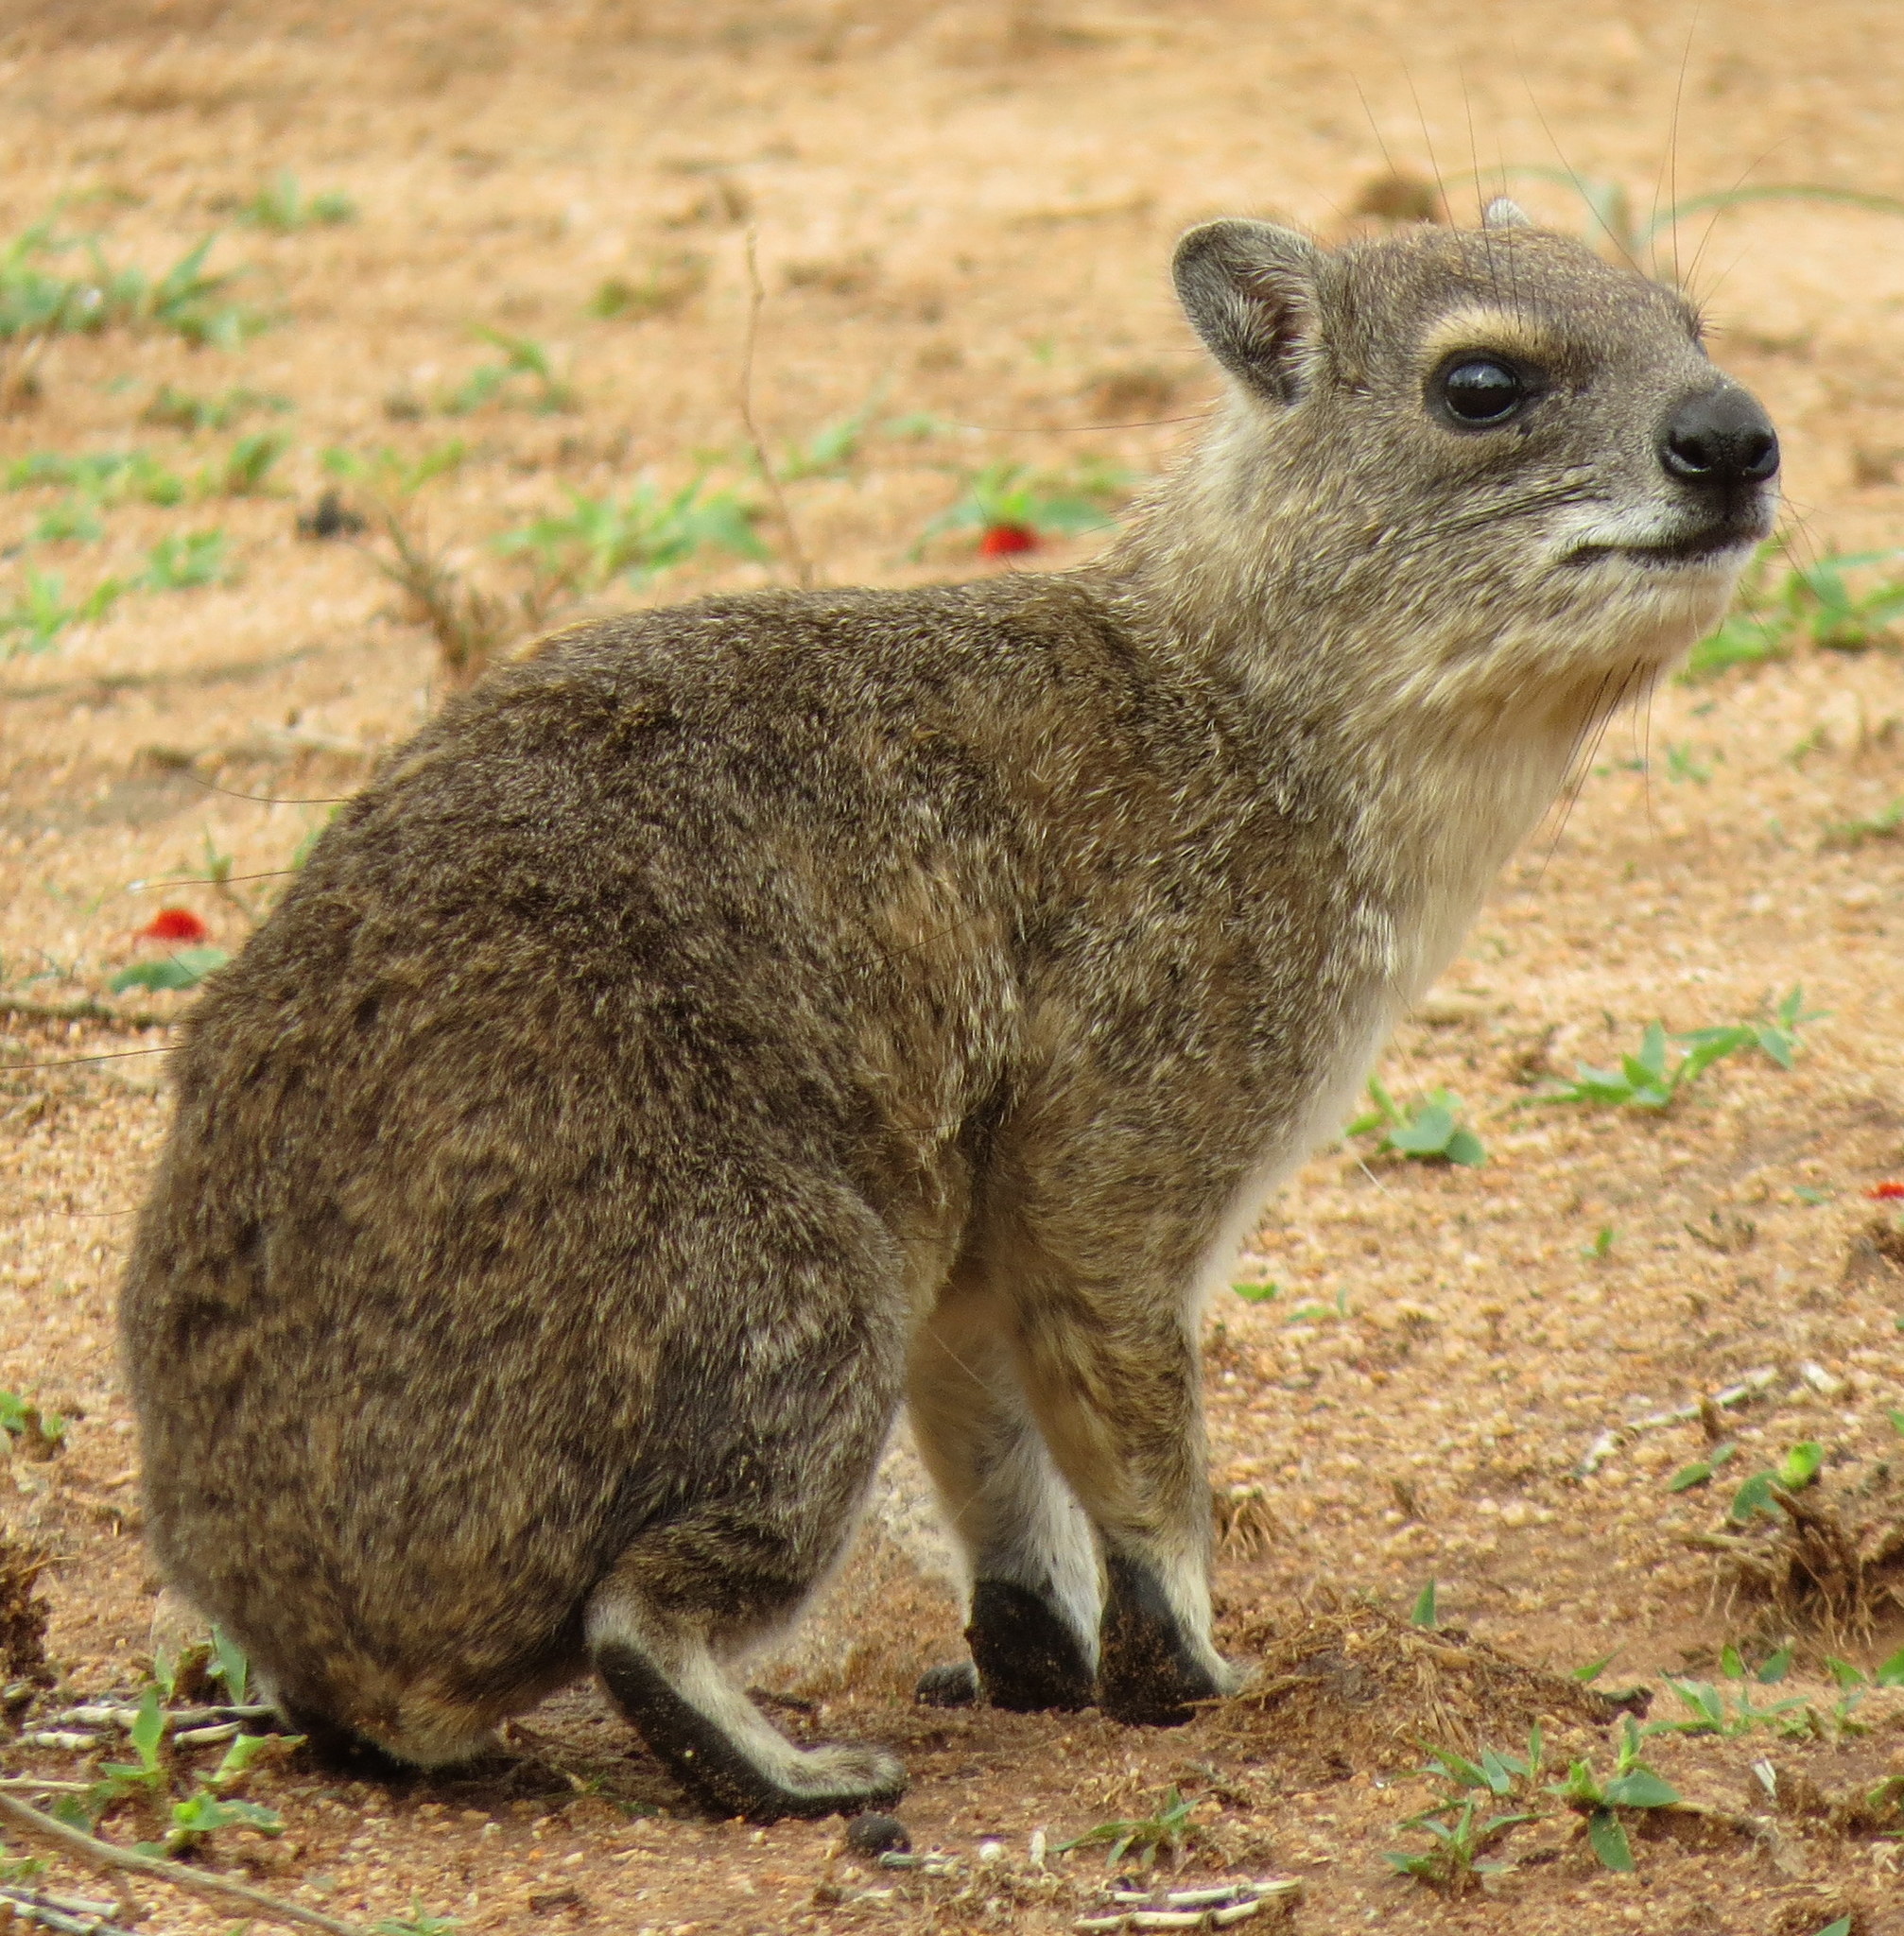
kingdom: Animalia
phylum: Chordata
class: Mammalia
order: Hyracoidea
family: Procaviidae
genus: Heterohyrax
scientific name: Heterohyrax brucei
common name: Bush hyrax
